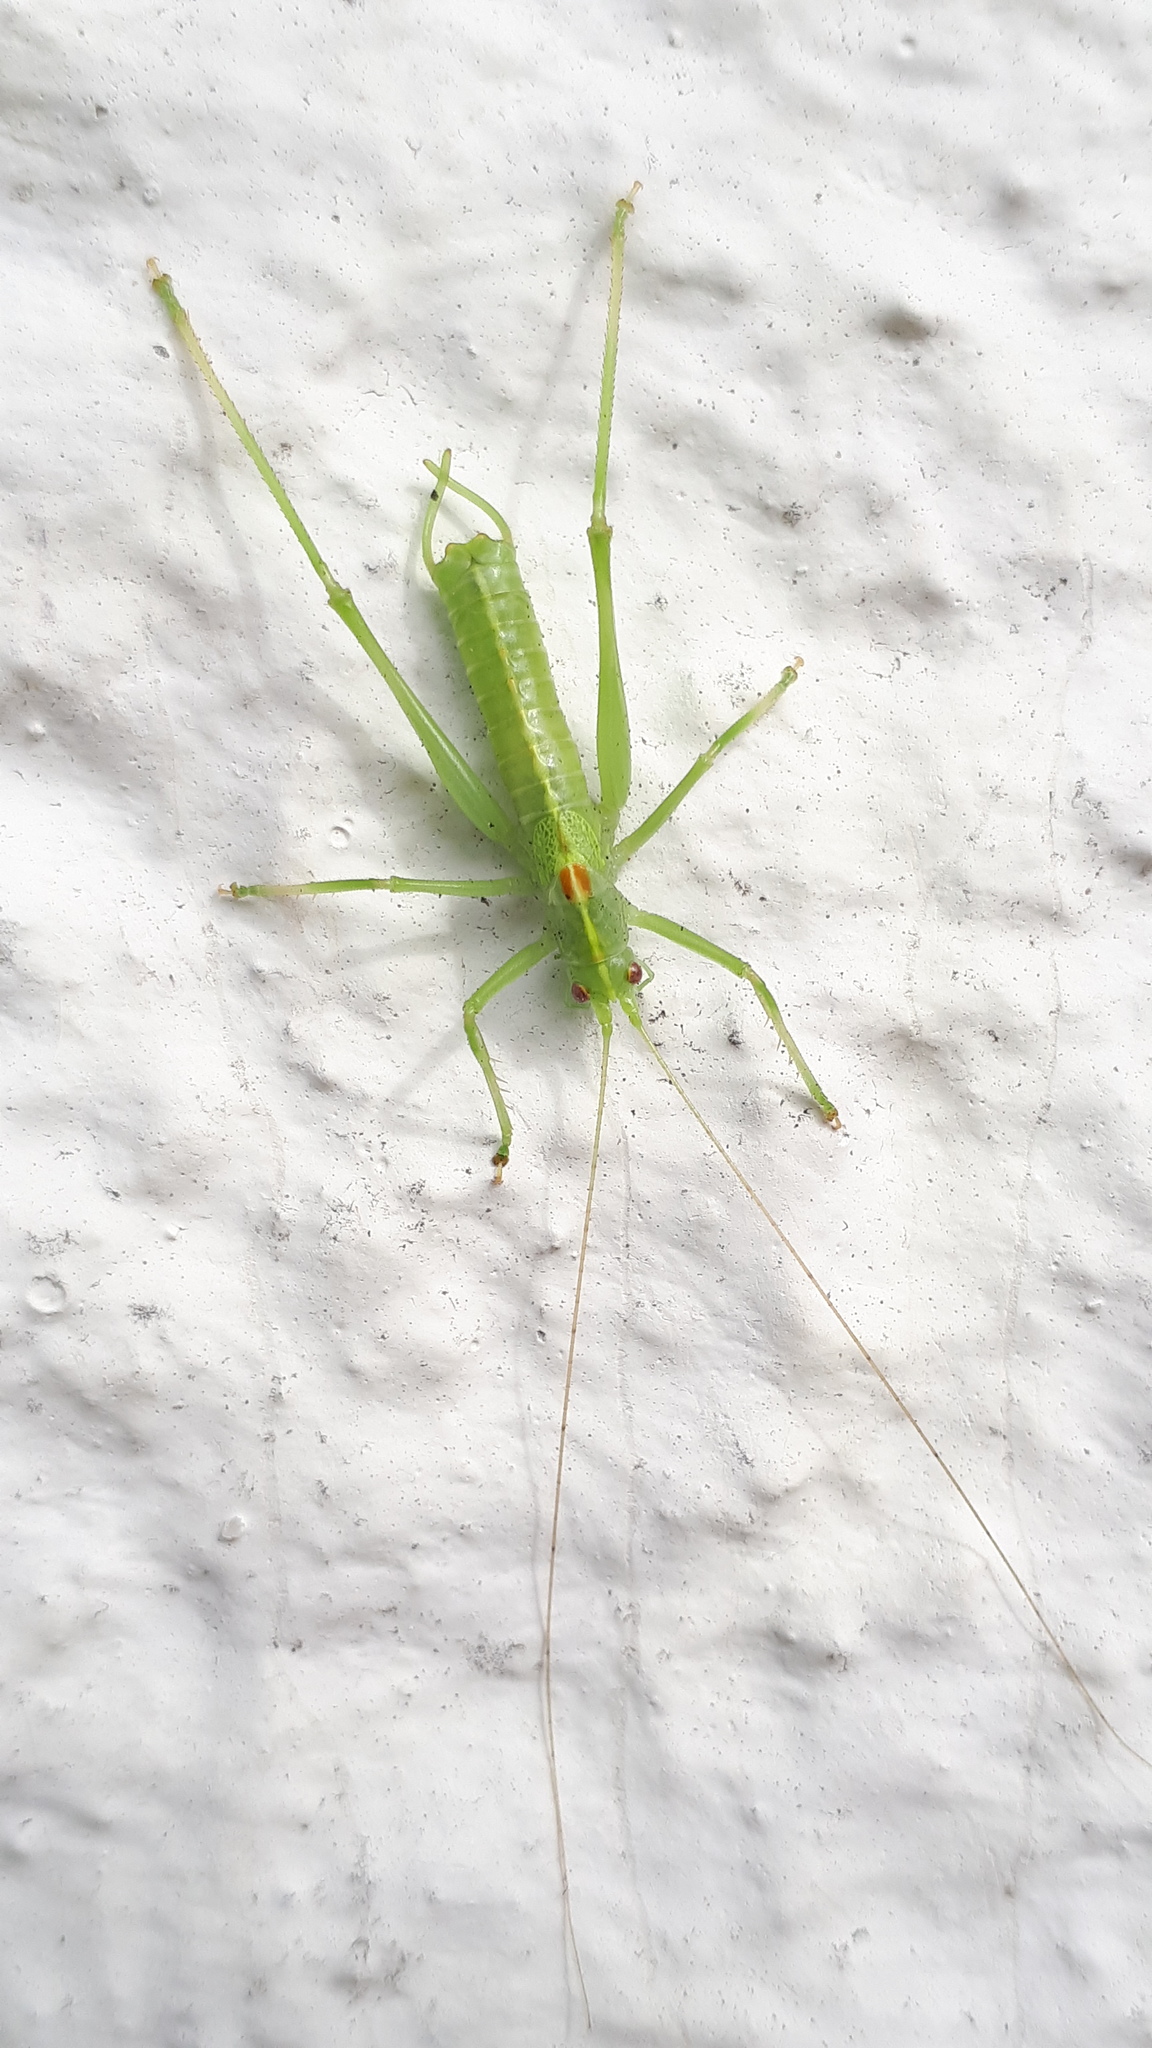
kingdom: Animalia
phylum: Arthropoda
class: Insecta
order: Orthoptera
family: Tettigoniidae
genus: Meconema
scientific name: Meconema meridionale
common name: Southern oak bush-cricket
